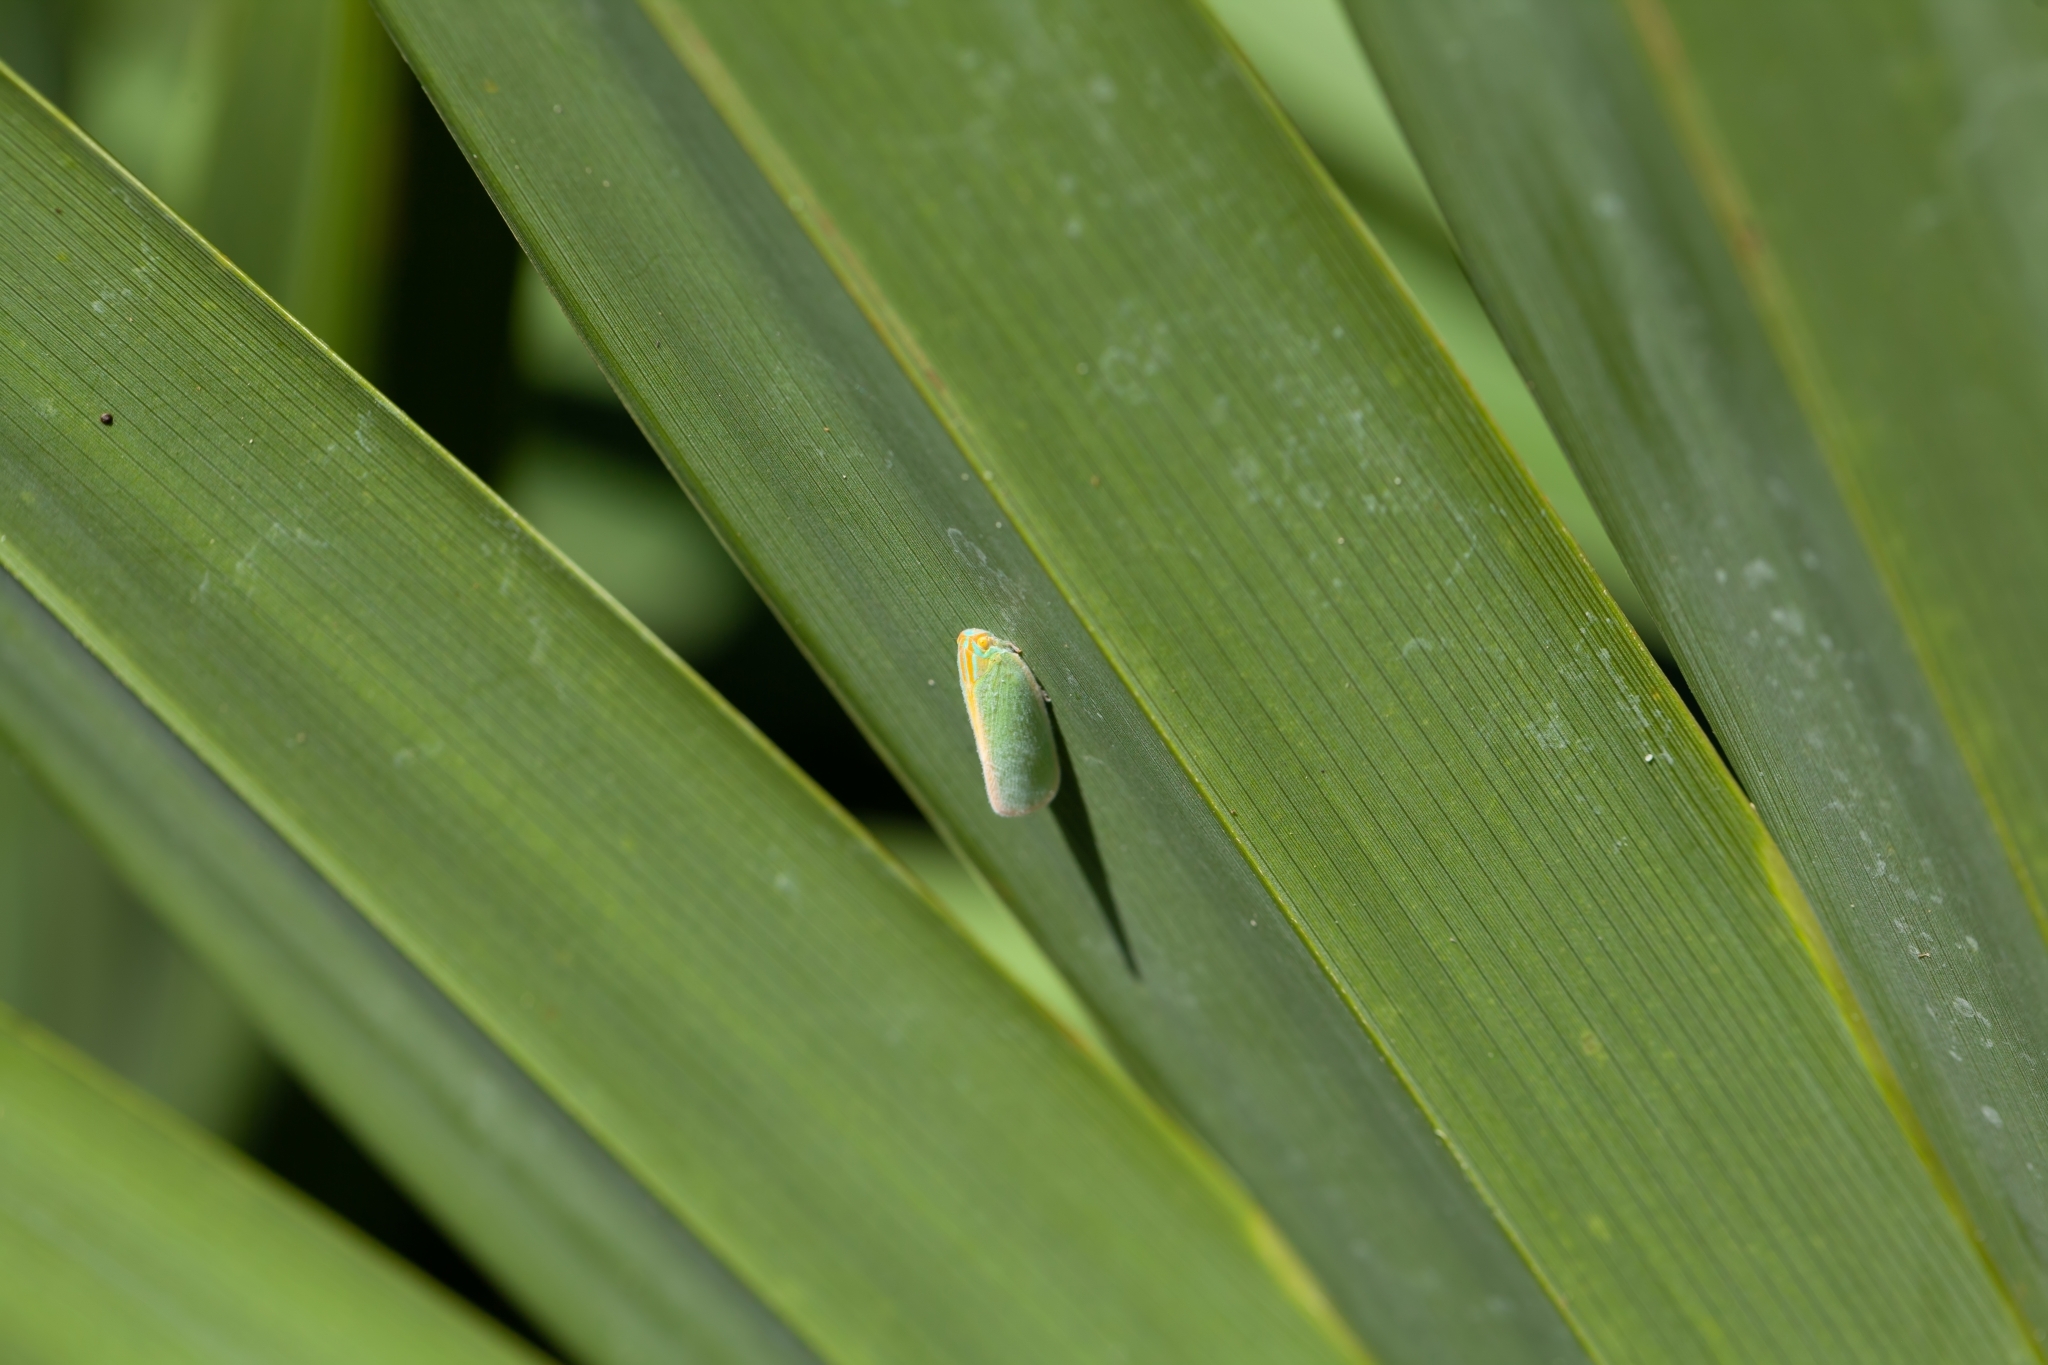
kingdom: Animalia
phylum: Arthropoda
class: Insecta
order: Hemiptera
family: Flatidae
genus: Ormenaria
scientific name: Ormenaria rufifascia
